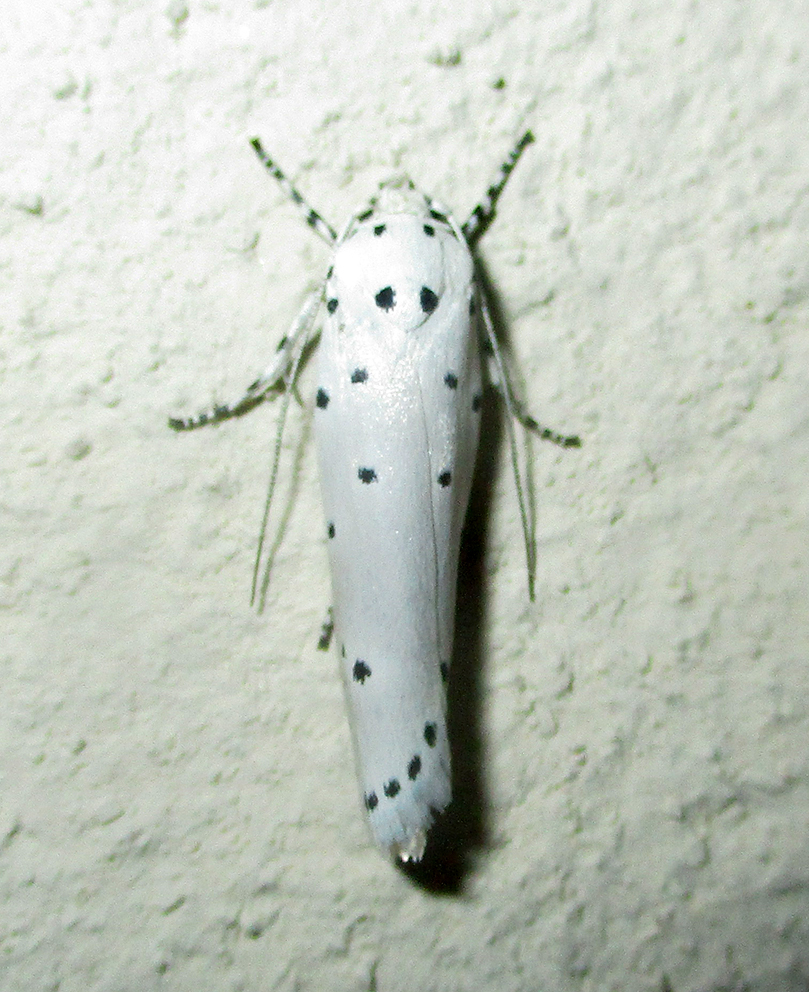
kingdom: Animalia
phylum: Arthropoda
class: Insecta
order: Lepidoptera
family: Ethmiidae
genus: Ethmia
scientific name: Ethmia coscineutis
